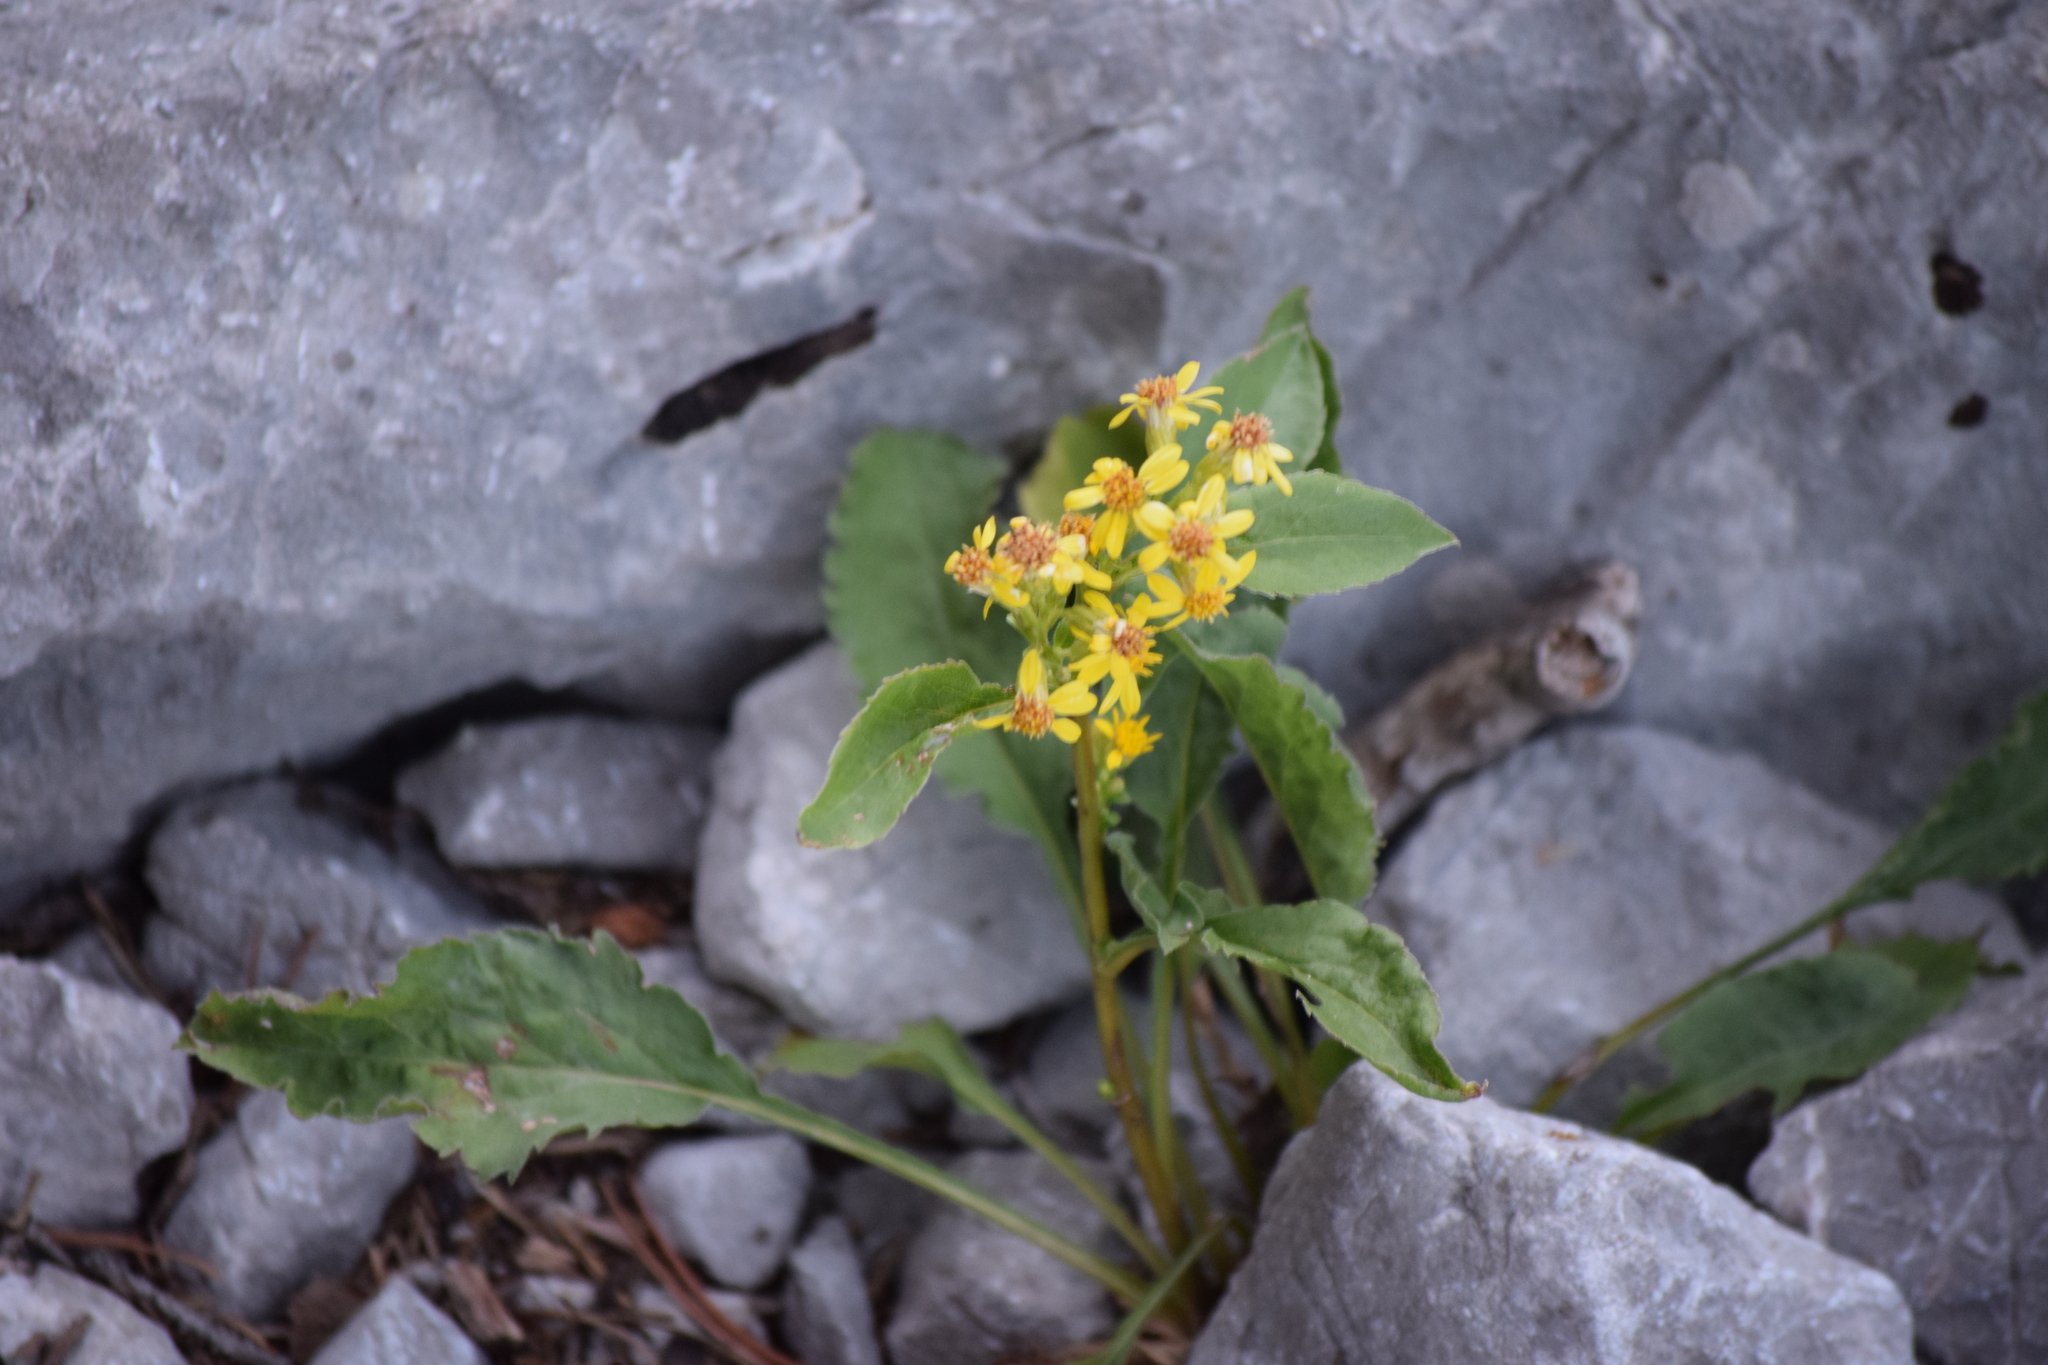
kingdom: Plantae
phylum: Tracheophyta
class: Magnoliopsida
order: Asterales
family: Asteraceae
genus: Solidago
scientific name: Solidago virgaurea
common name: Goldenrod
